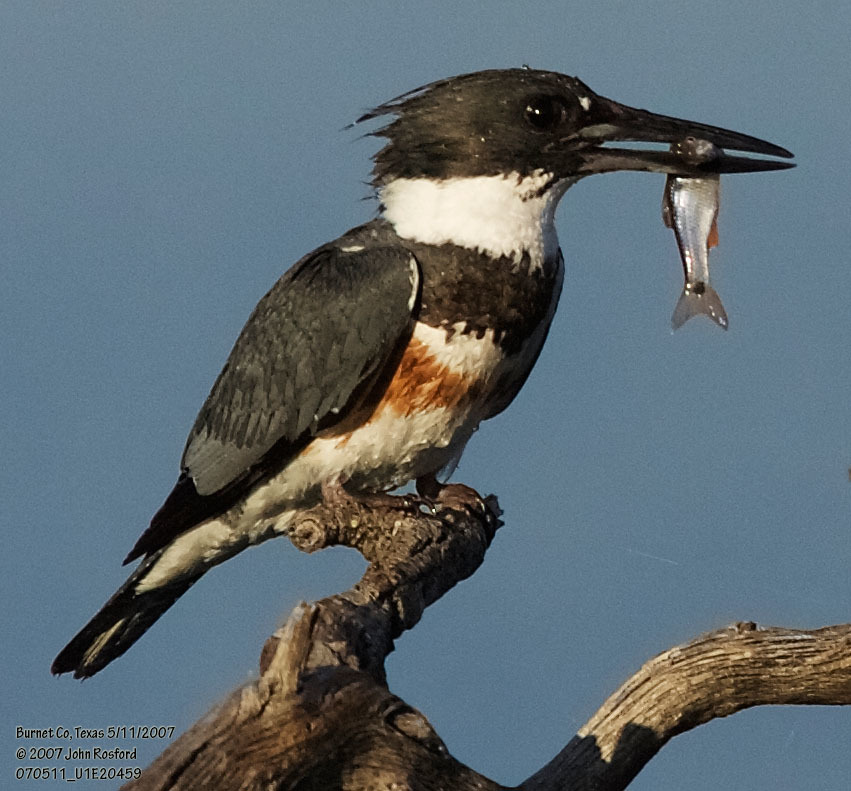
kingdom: Animalia
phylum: Chordata
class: Aves
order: Coraciiformes
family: Alcedinidae
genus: Megaceryle
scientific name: Megaceryle alcyon
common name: Belted kingfisher
